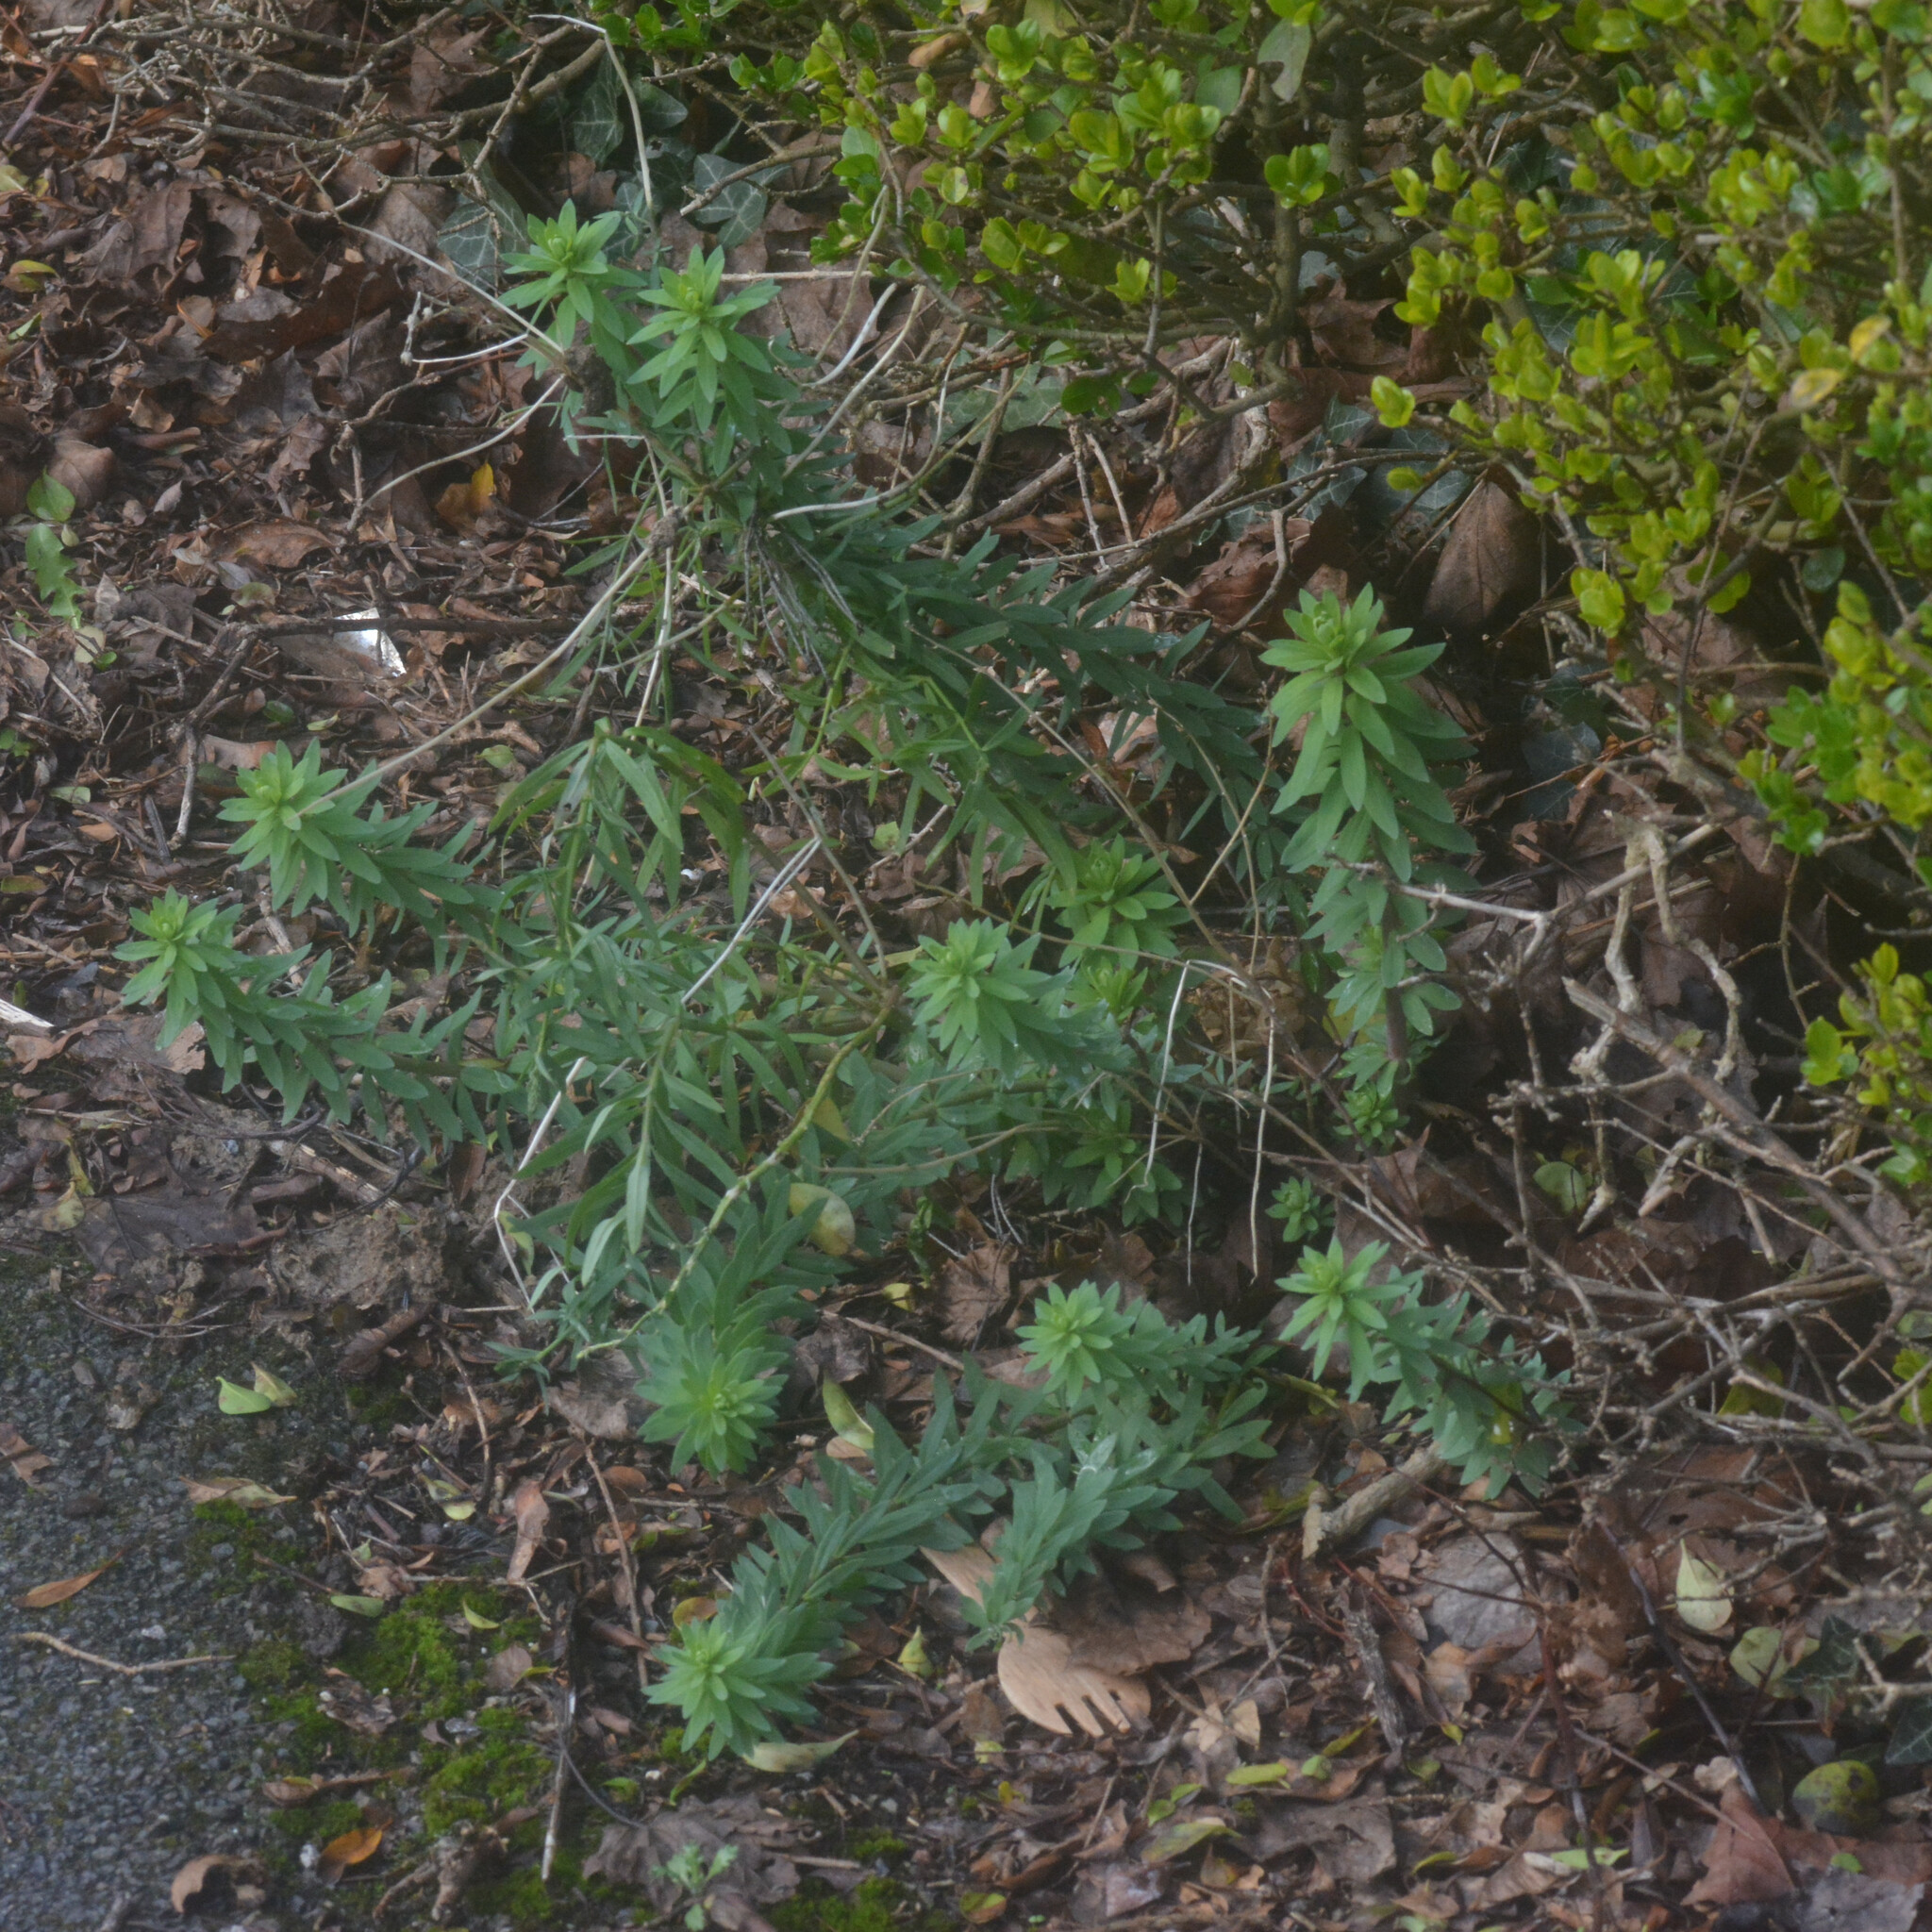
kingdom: Plantae
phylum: Tracheophyta
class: Magnoliopsida
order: Lamiales
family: Plantaginaceae
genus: Linaria
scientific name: Linaria purpurea
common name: Purple toadflax
